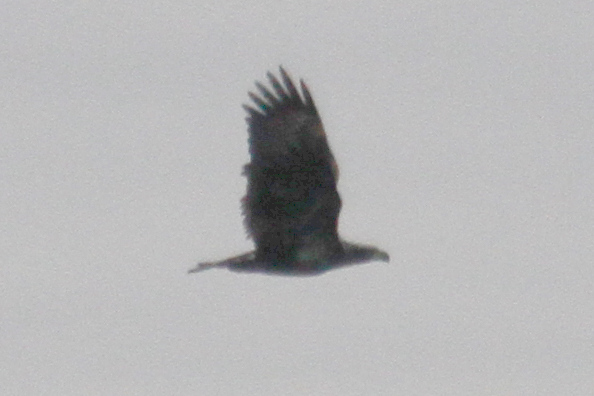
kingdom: Animalia
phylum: Chordata
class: Aves
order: Accipitriformes
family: Accipitridae
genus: Haliaeetus
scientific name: Haliaeetus leucocephalus
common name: Bald eagle
